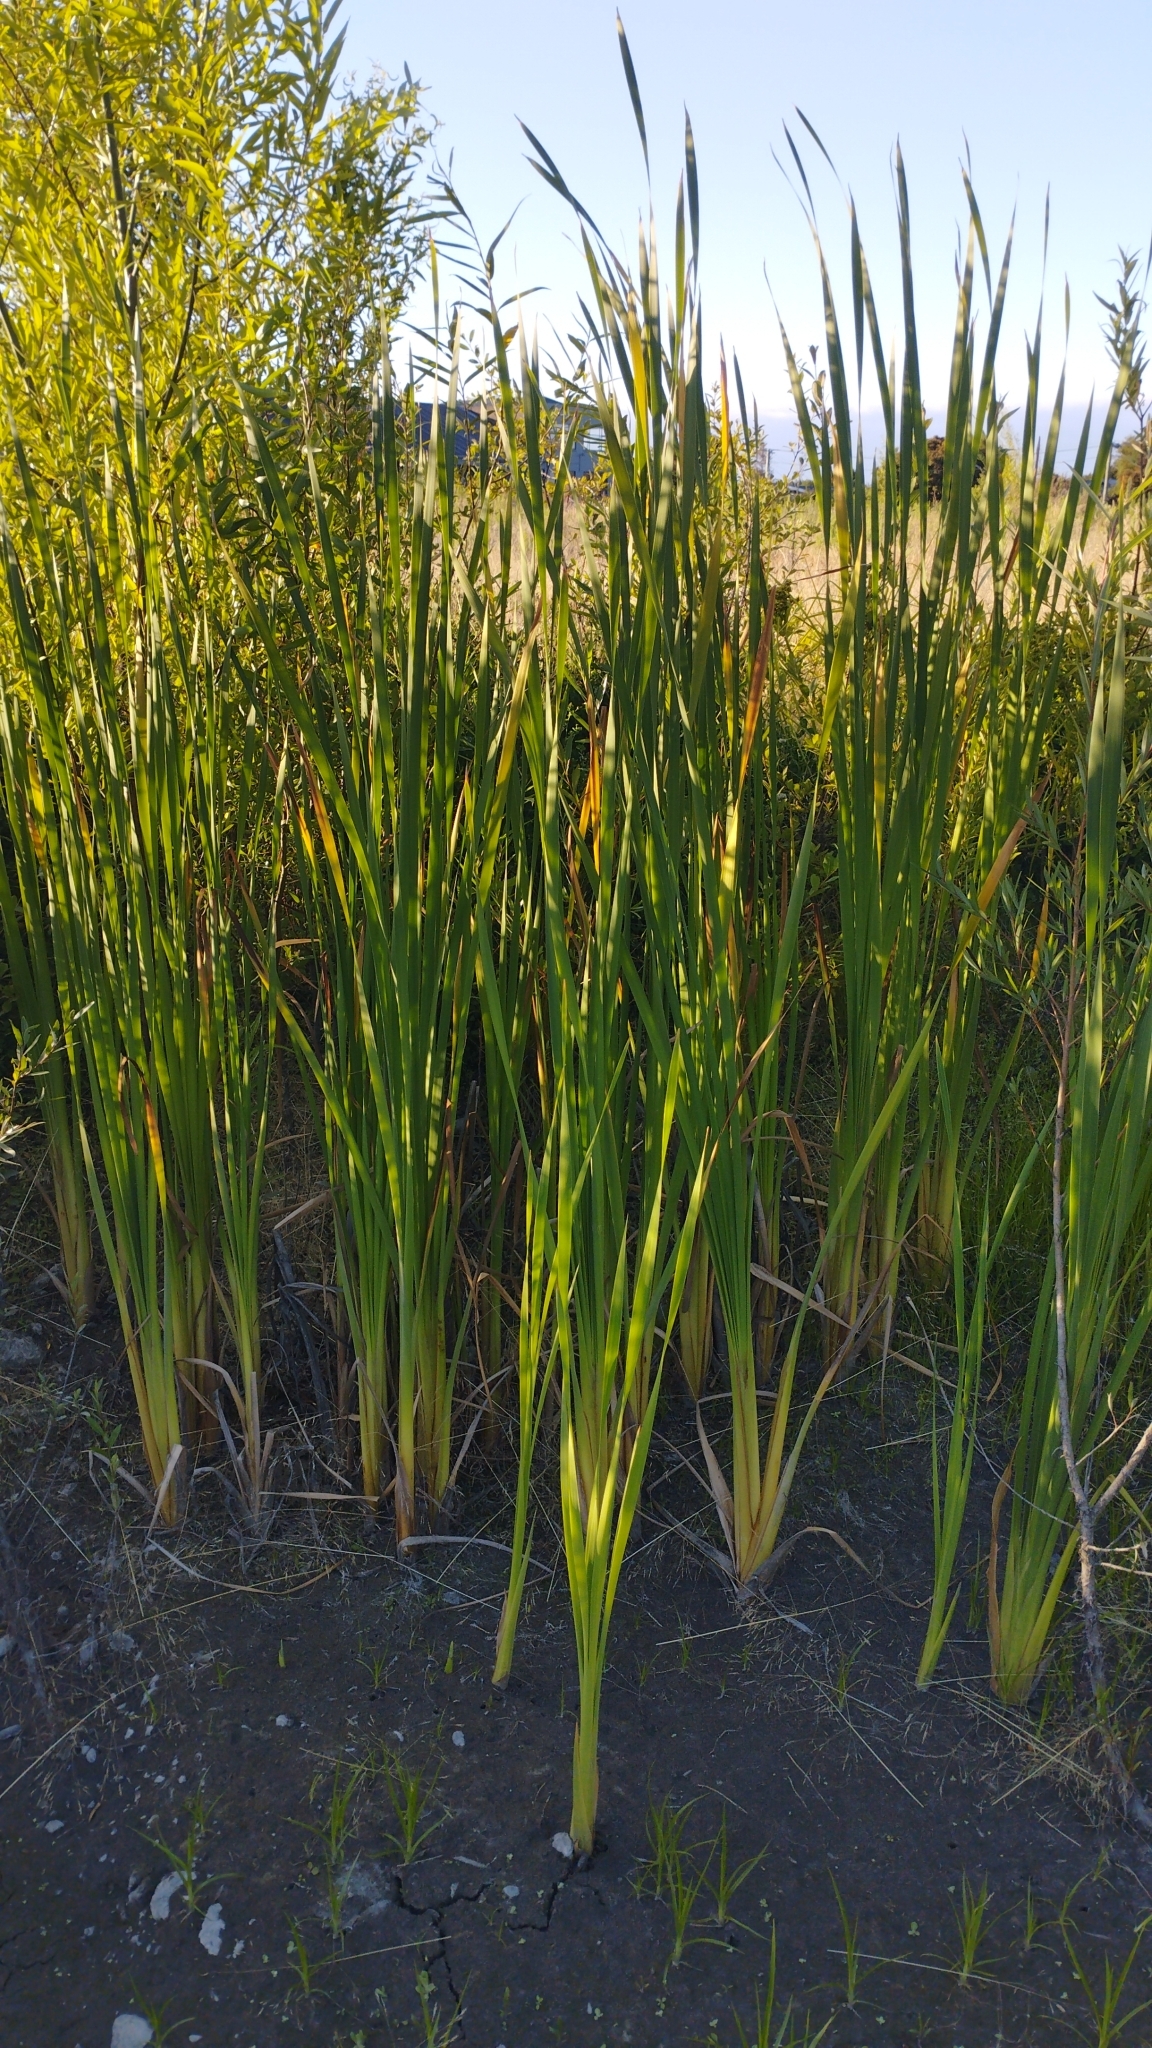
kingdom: Plantae
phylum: Tracheophyta
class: Liliopsida
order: Poales
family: Typhaceae
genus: Typha
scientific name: Typha orientalis
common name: Bullrush
